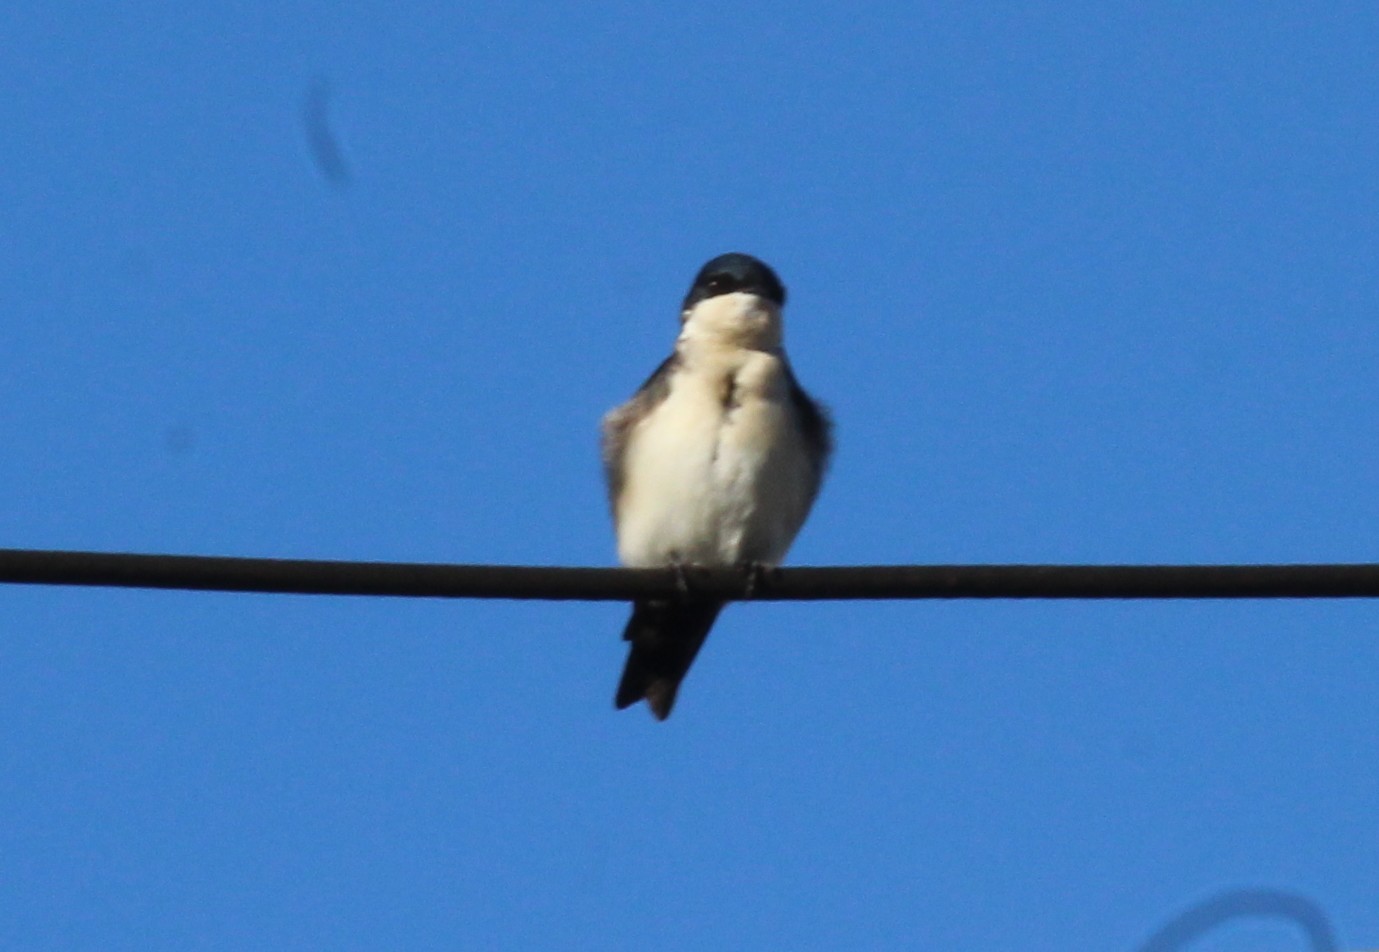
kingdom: Animalia
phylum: Chordata
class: Aves
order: Passeriformes
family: Hirundinidae
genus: Notiochelidon
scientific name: Notiochelidon cyanoleuca
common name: Blue-and-white swallow
